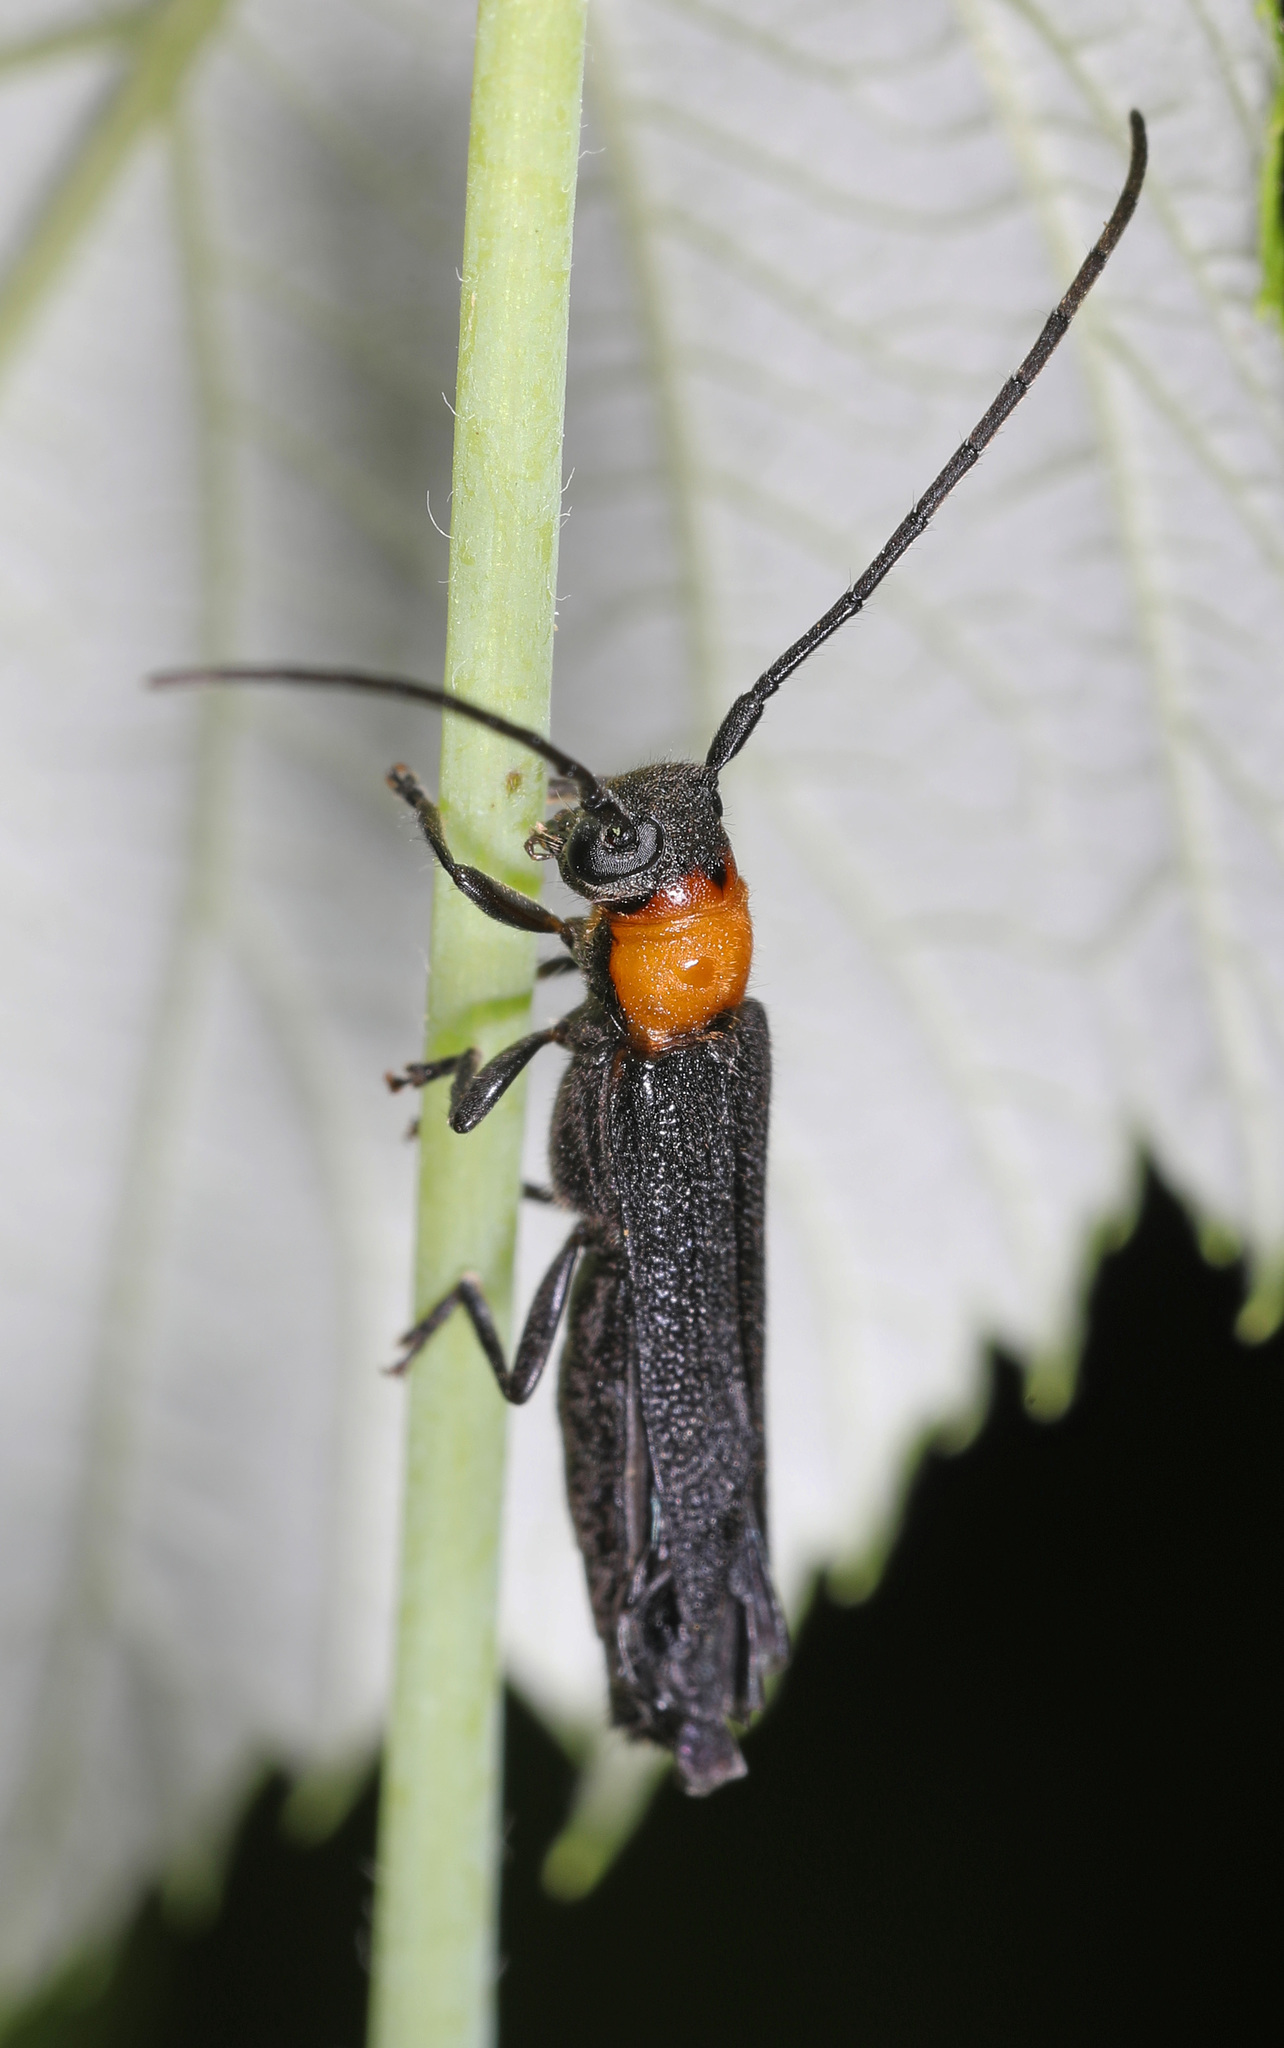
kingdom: Animalia
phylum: Arthropoda
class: Insecta
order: Coleoptera
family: Cerambycidae
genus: Oberea
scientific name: Oberea affinis
